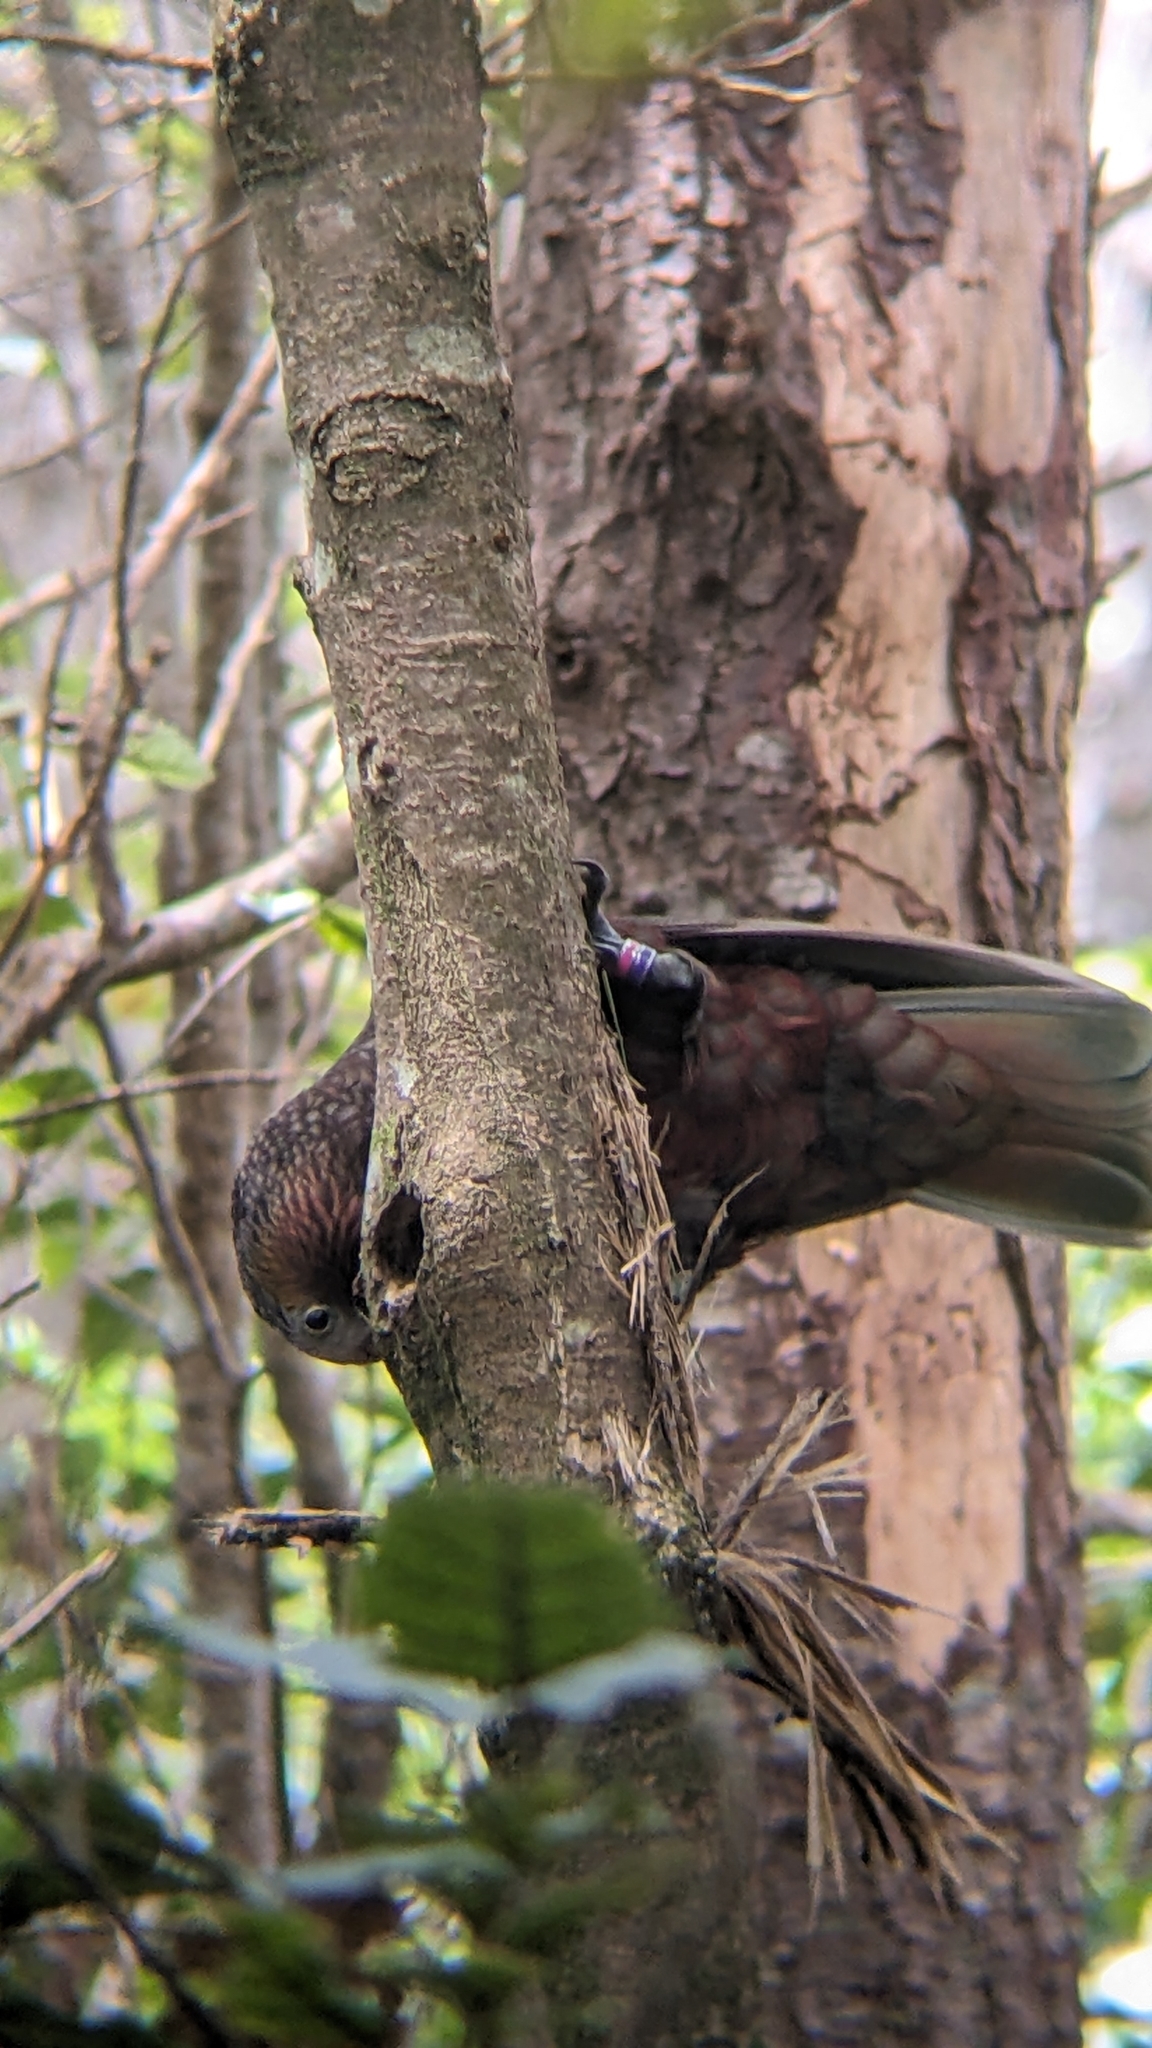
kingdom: Animalia
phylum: Chordata
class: Aves
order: Psittaciformes
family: Psittacidae
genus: Nestor
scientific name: Nestor meridionalis
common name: New zealand kaka
